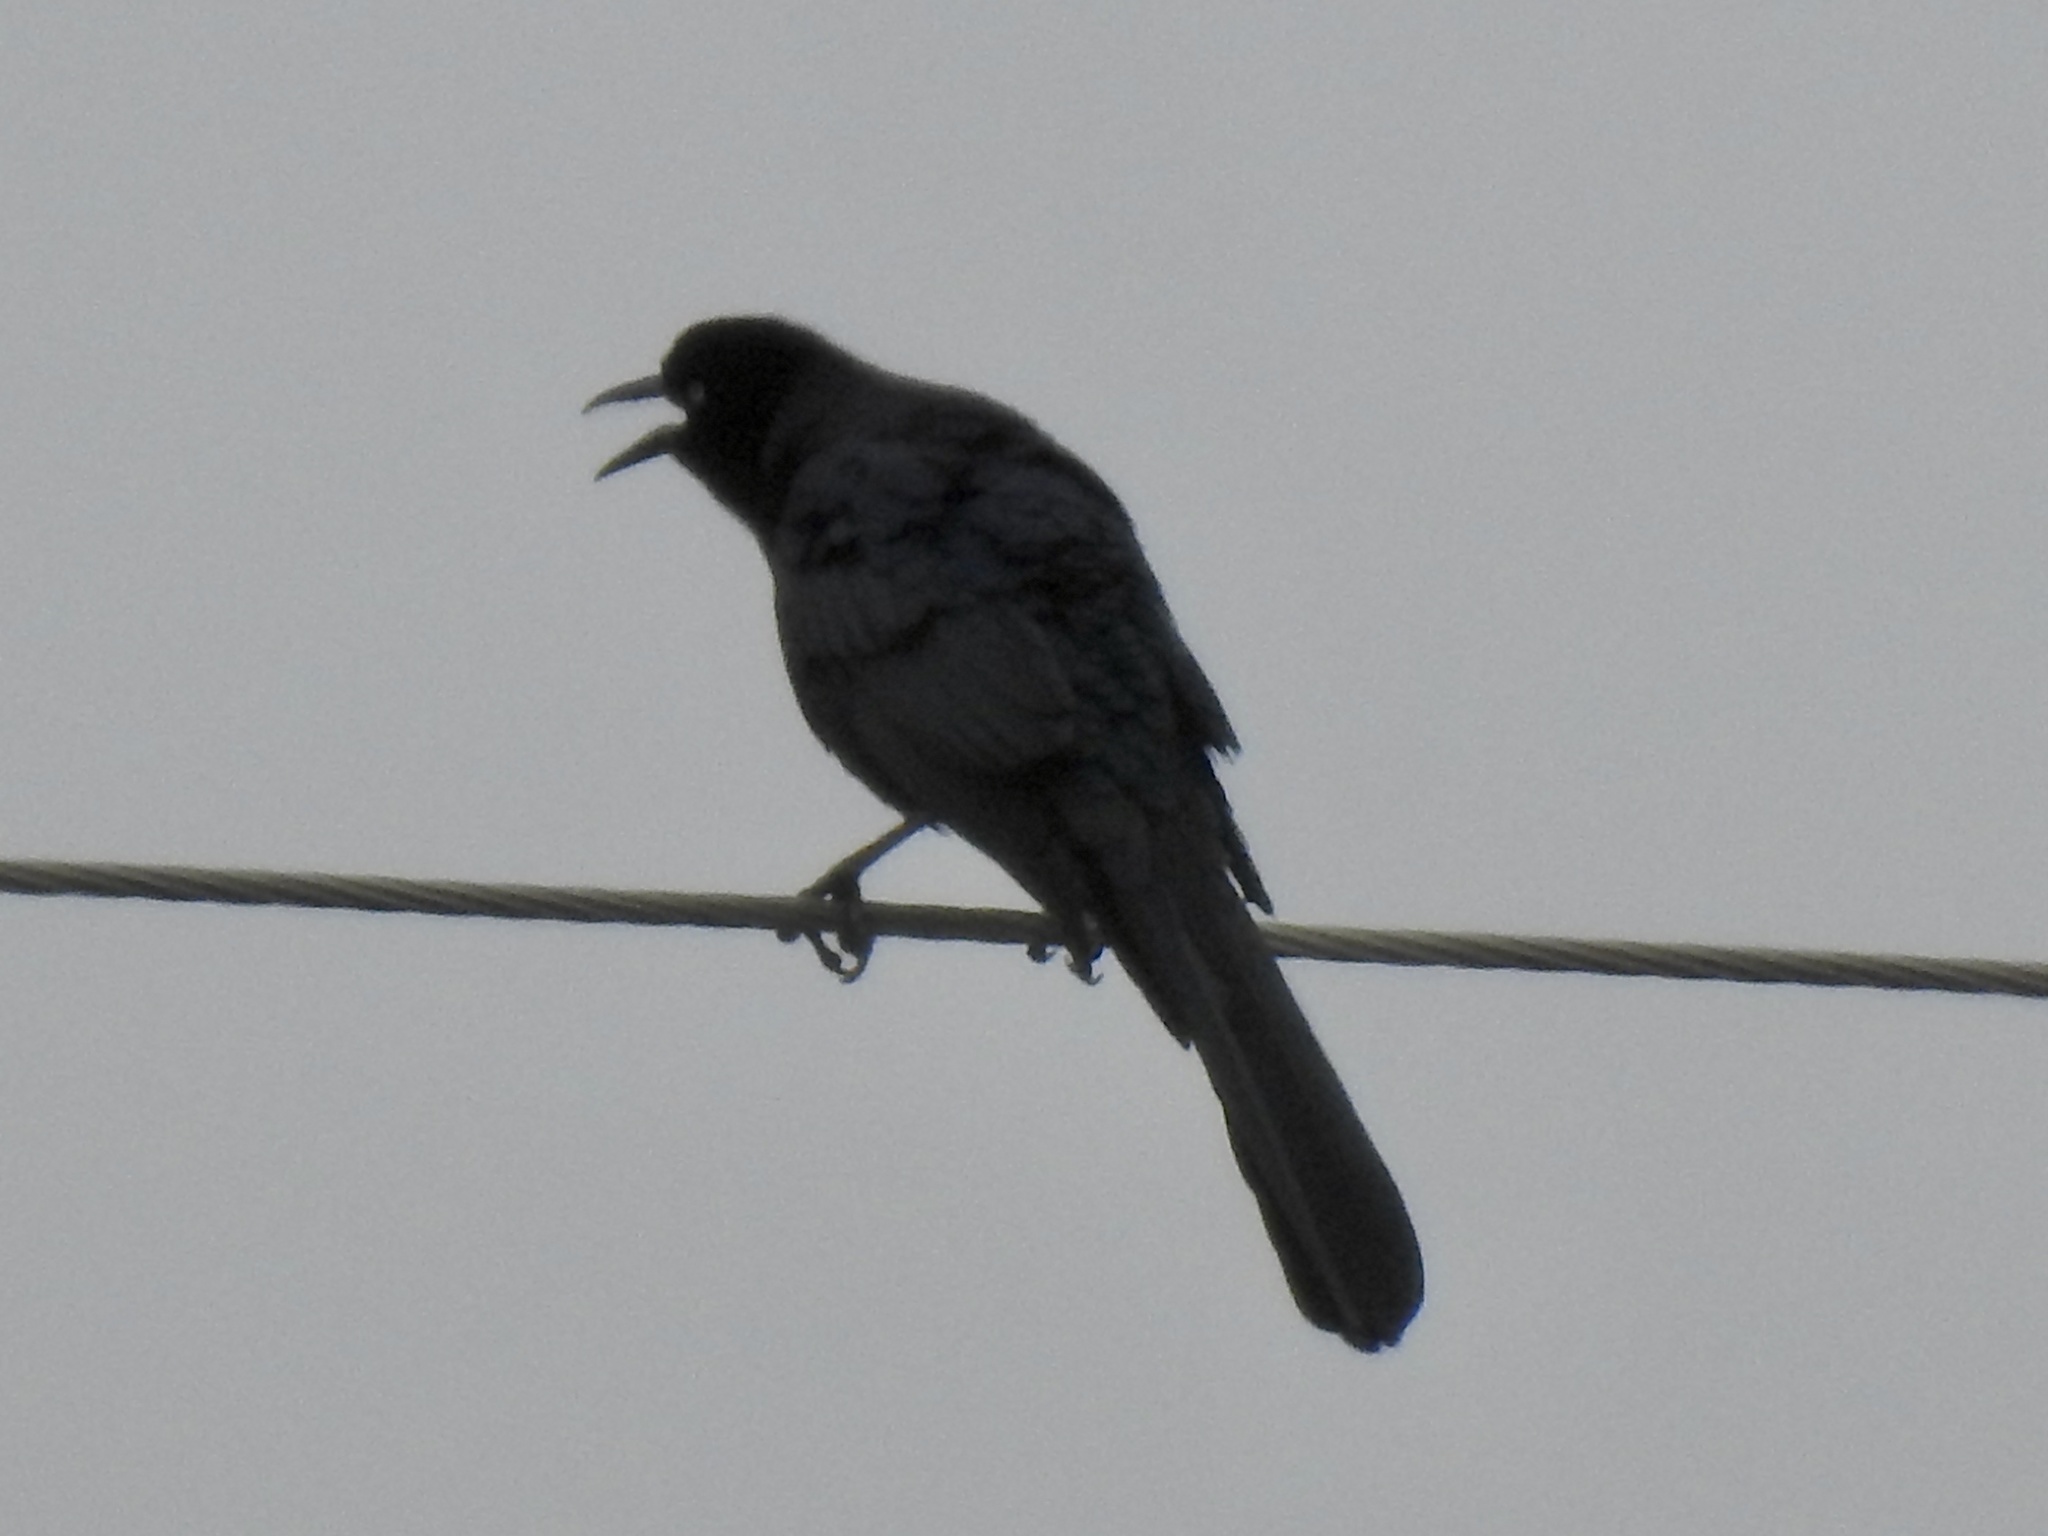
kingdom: Animalia
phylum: Chordata
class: Aves
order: Passeriformes
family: Icteridae
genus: Quiscalus
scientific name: Quiscalus mexicanus
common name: Great-tailed grackle
